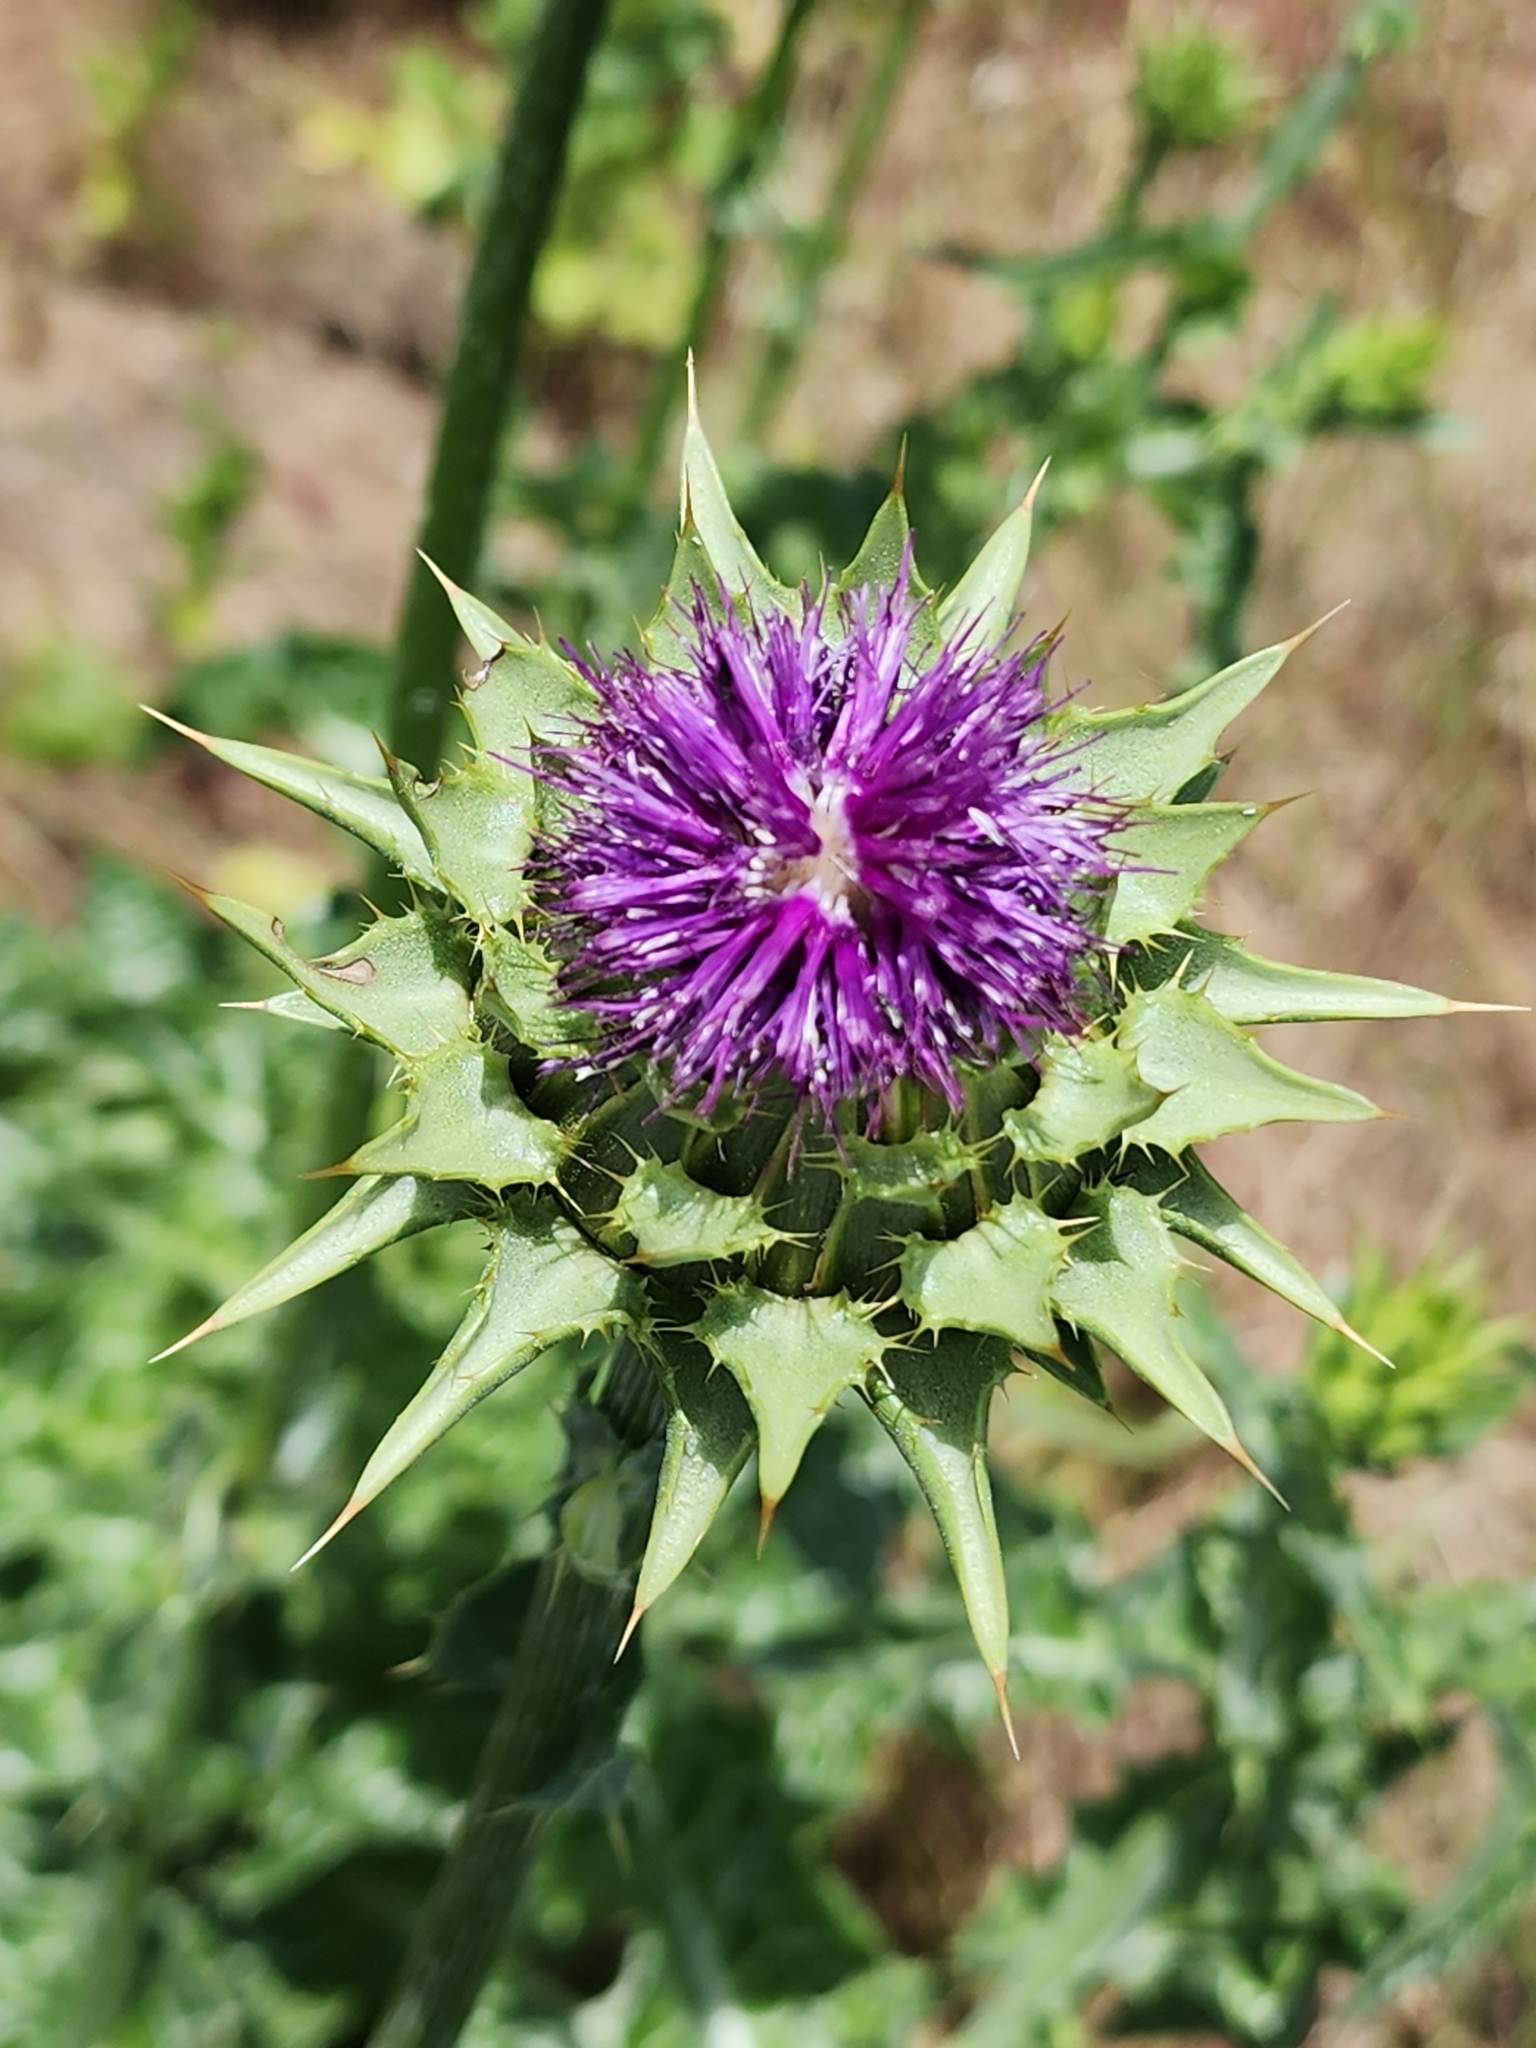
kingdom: Plantae
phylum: Tracheophyta
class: Magnoliopsida
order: Asterales
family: Asteraceae
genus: Silybum
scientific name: Silybum marianum
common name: Milk thistle
